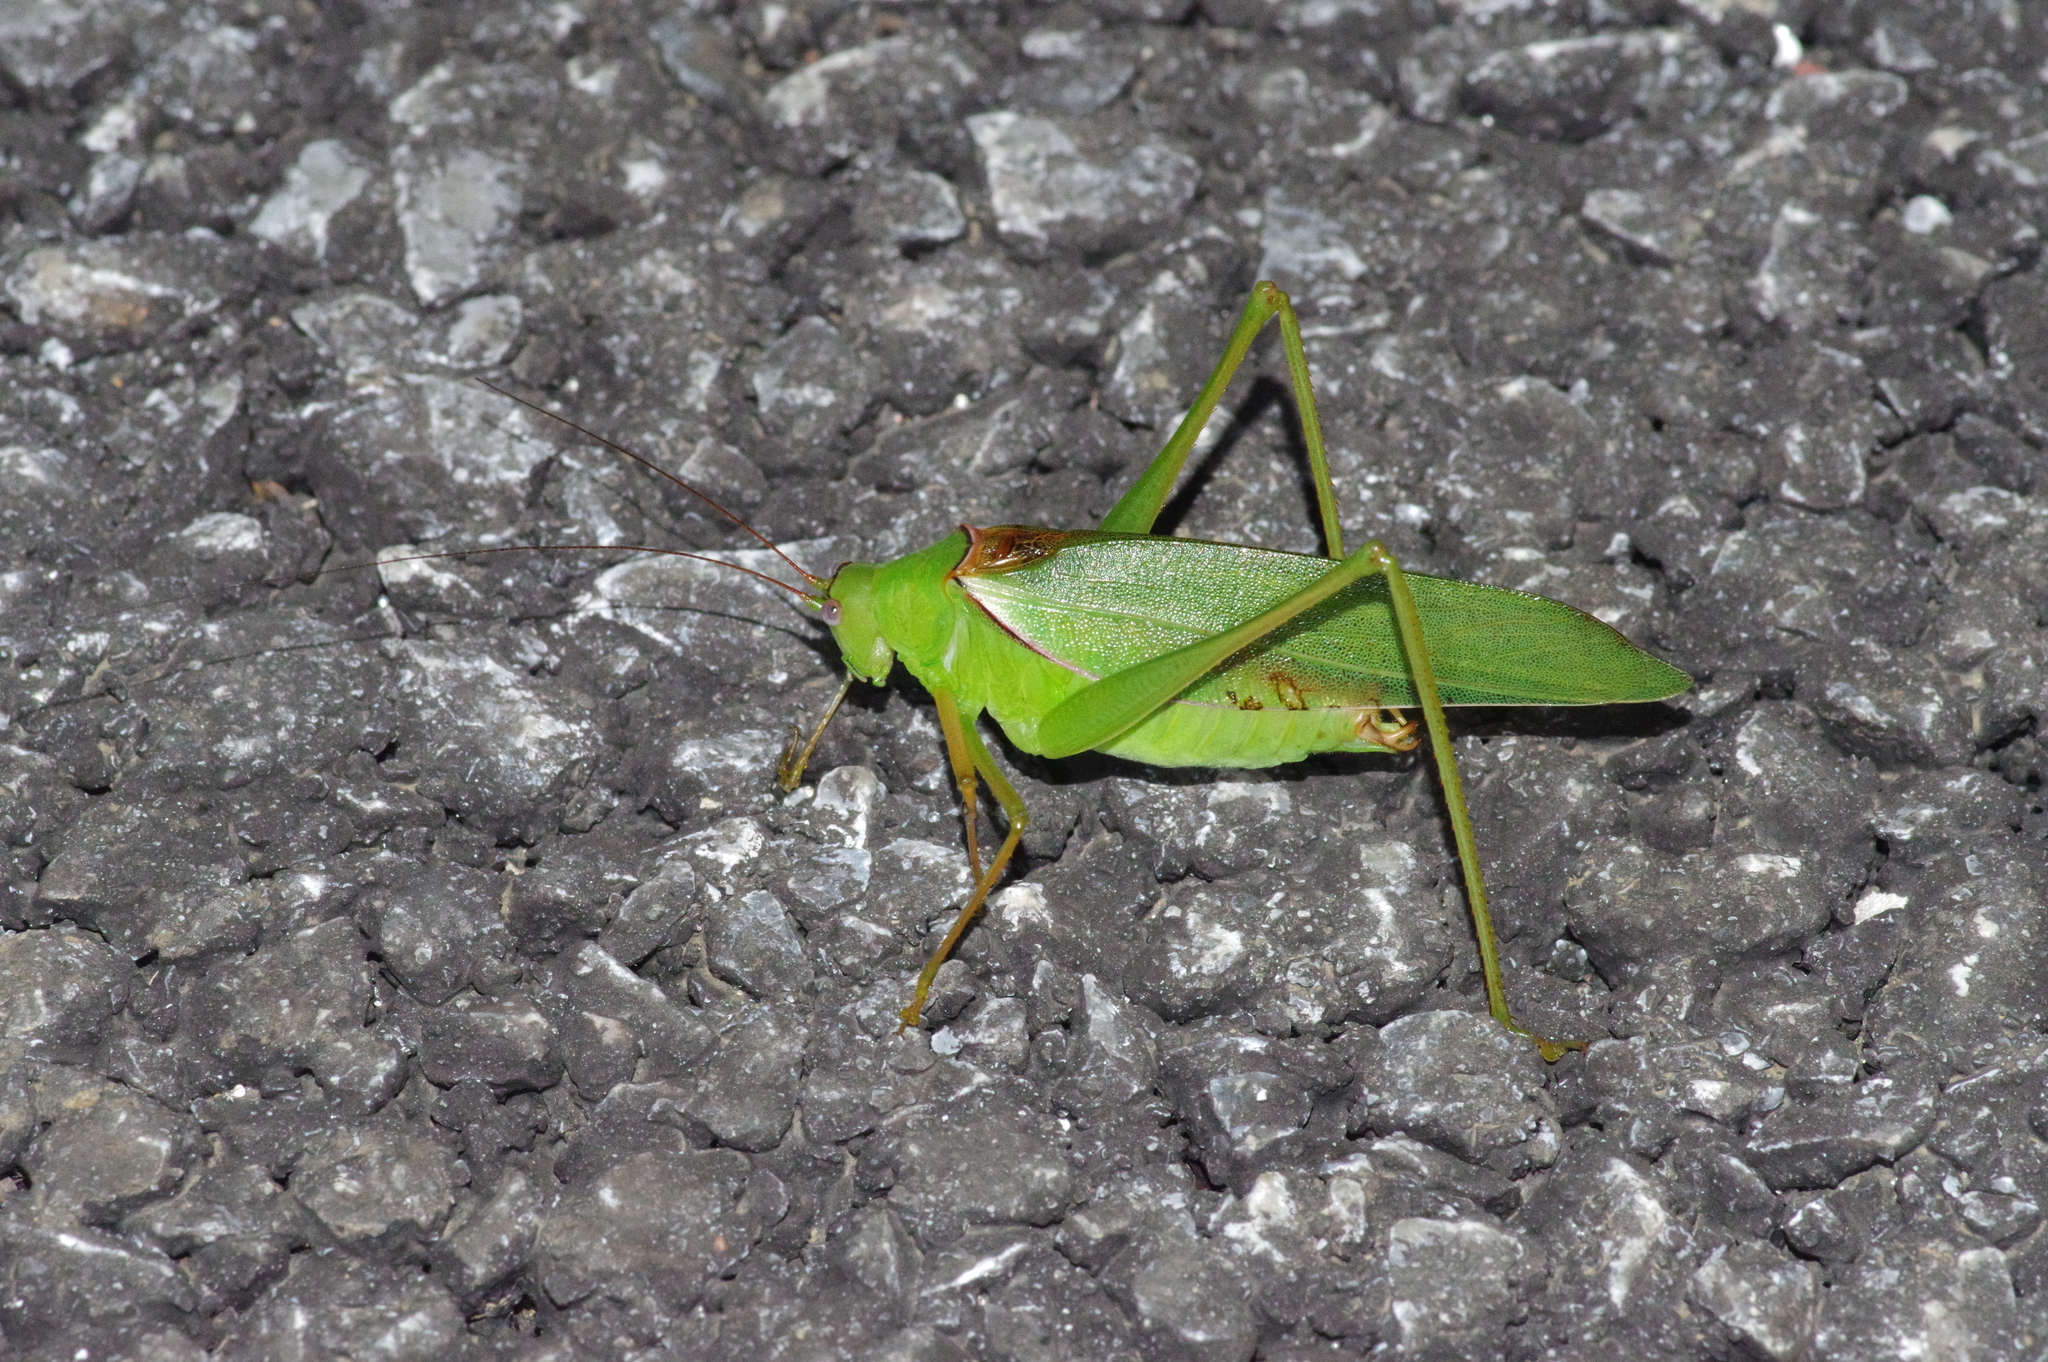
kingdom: Animalia
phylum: Arthropoda
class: Insecta
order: Orthoptera
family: Tettigoniidae
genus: Psyrana
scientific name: Psyrana ryukyuensis
